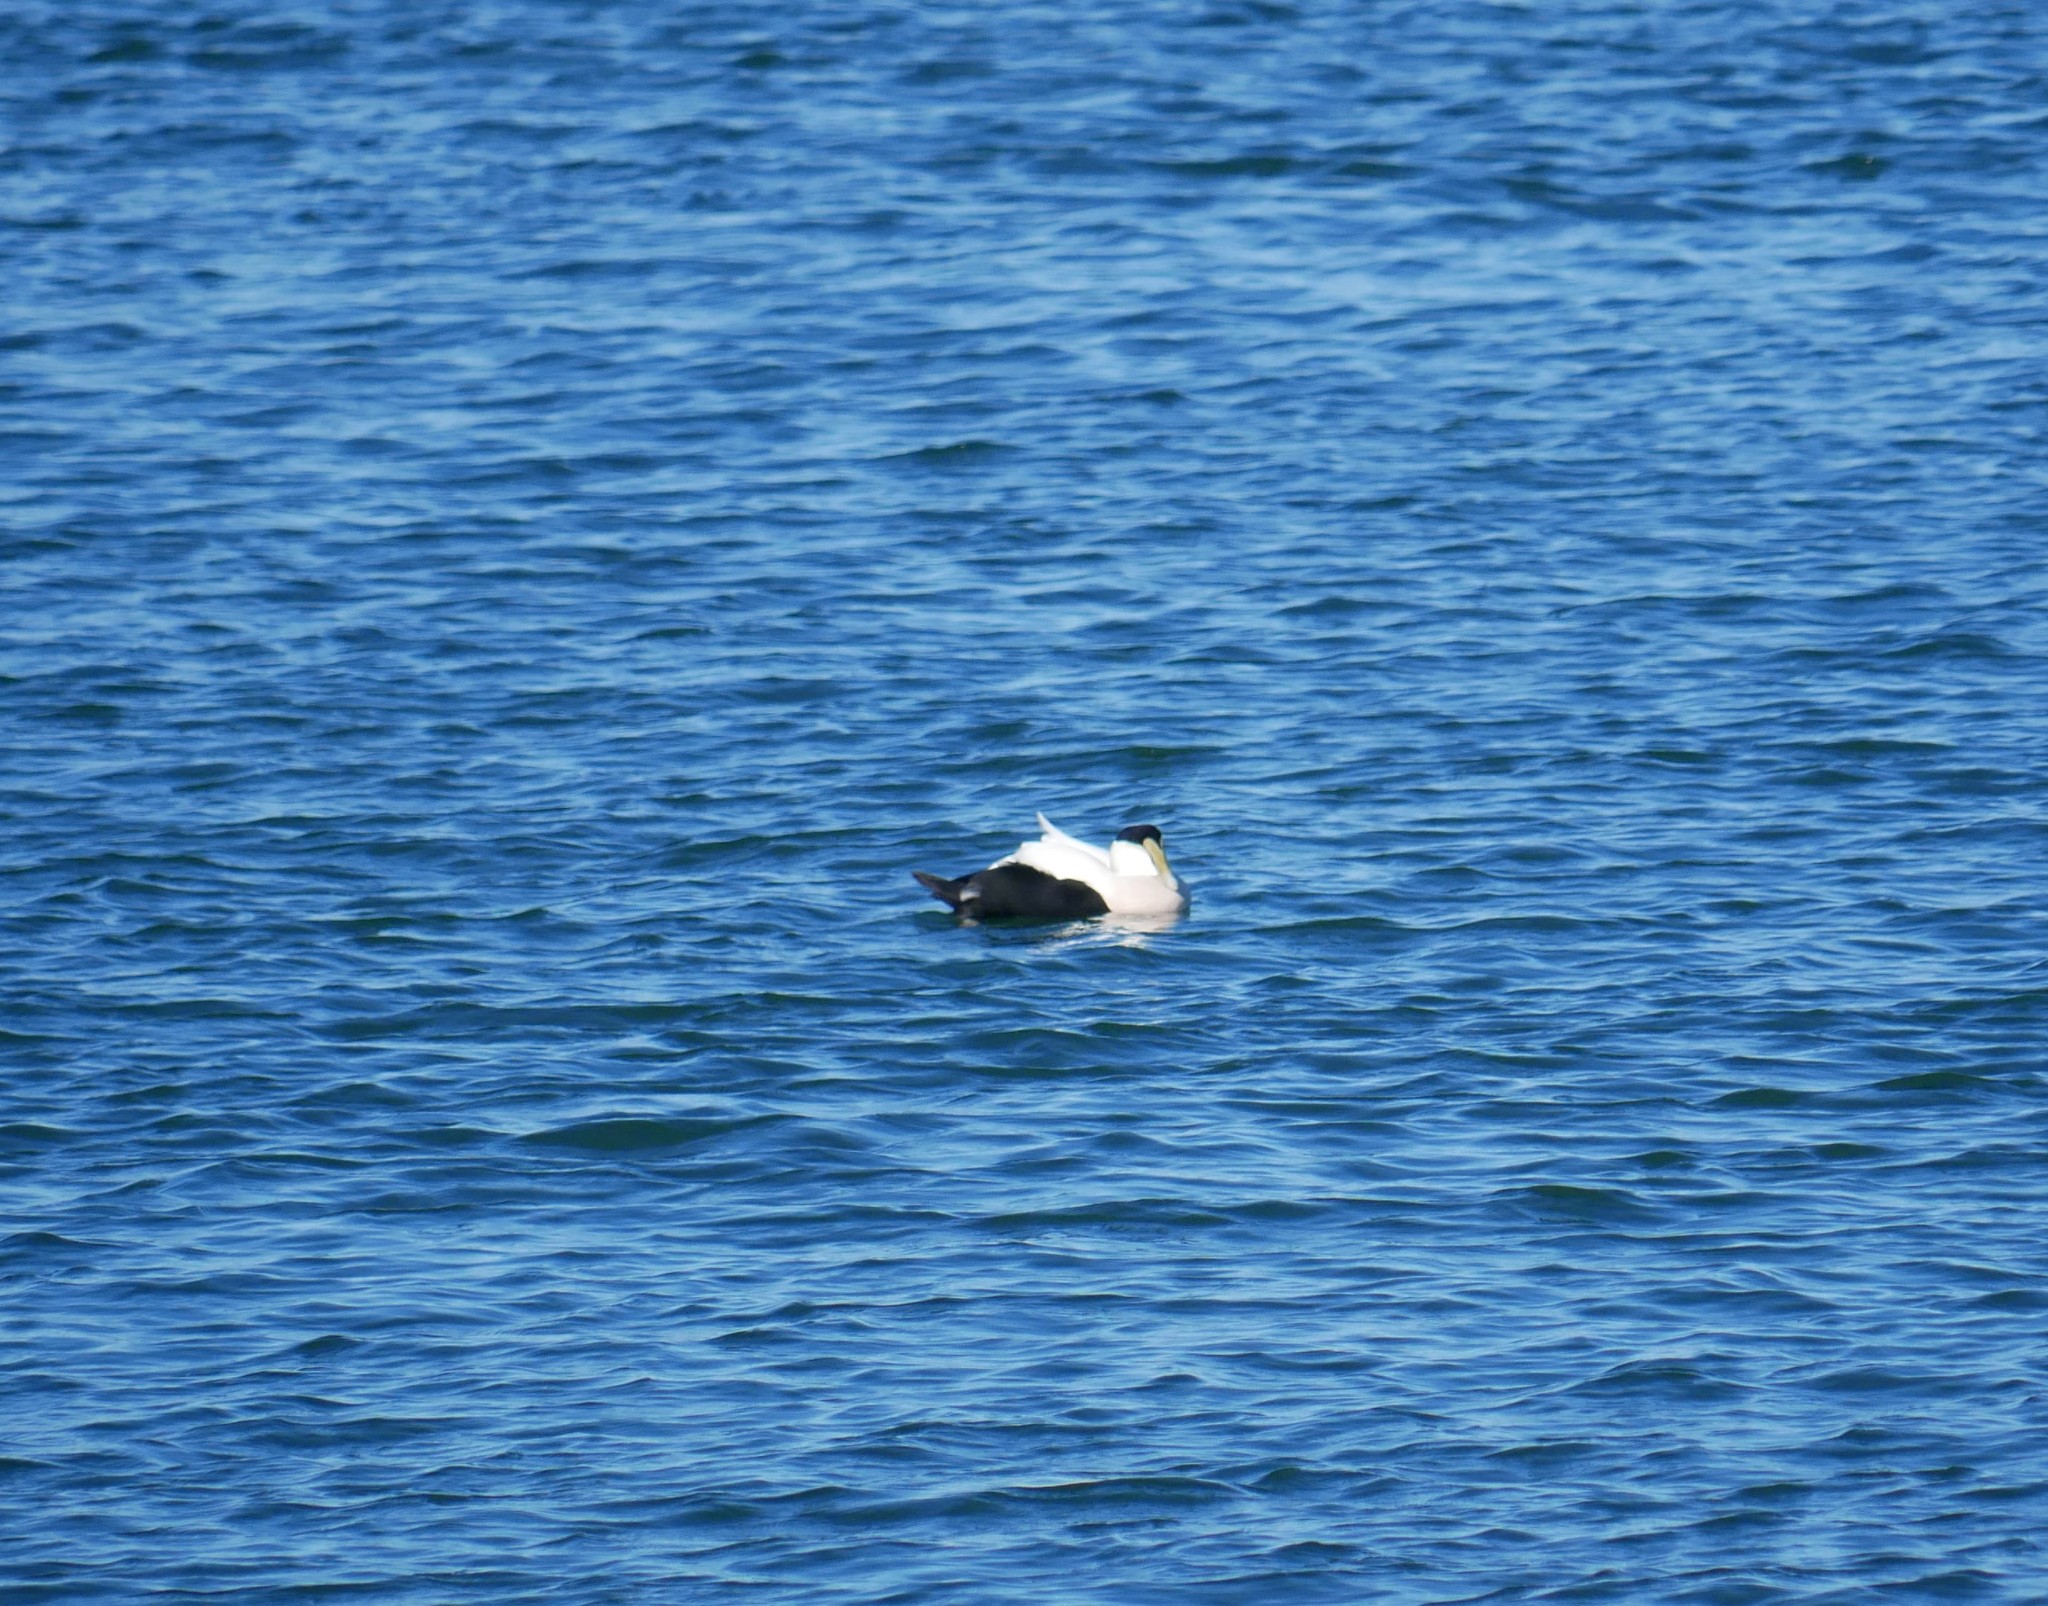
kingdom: Animalia
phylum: Chordata
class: Aves
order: Anseriformes
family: Anatidae
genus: Somateria
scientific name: Somateria mollissima
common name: Common eider
